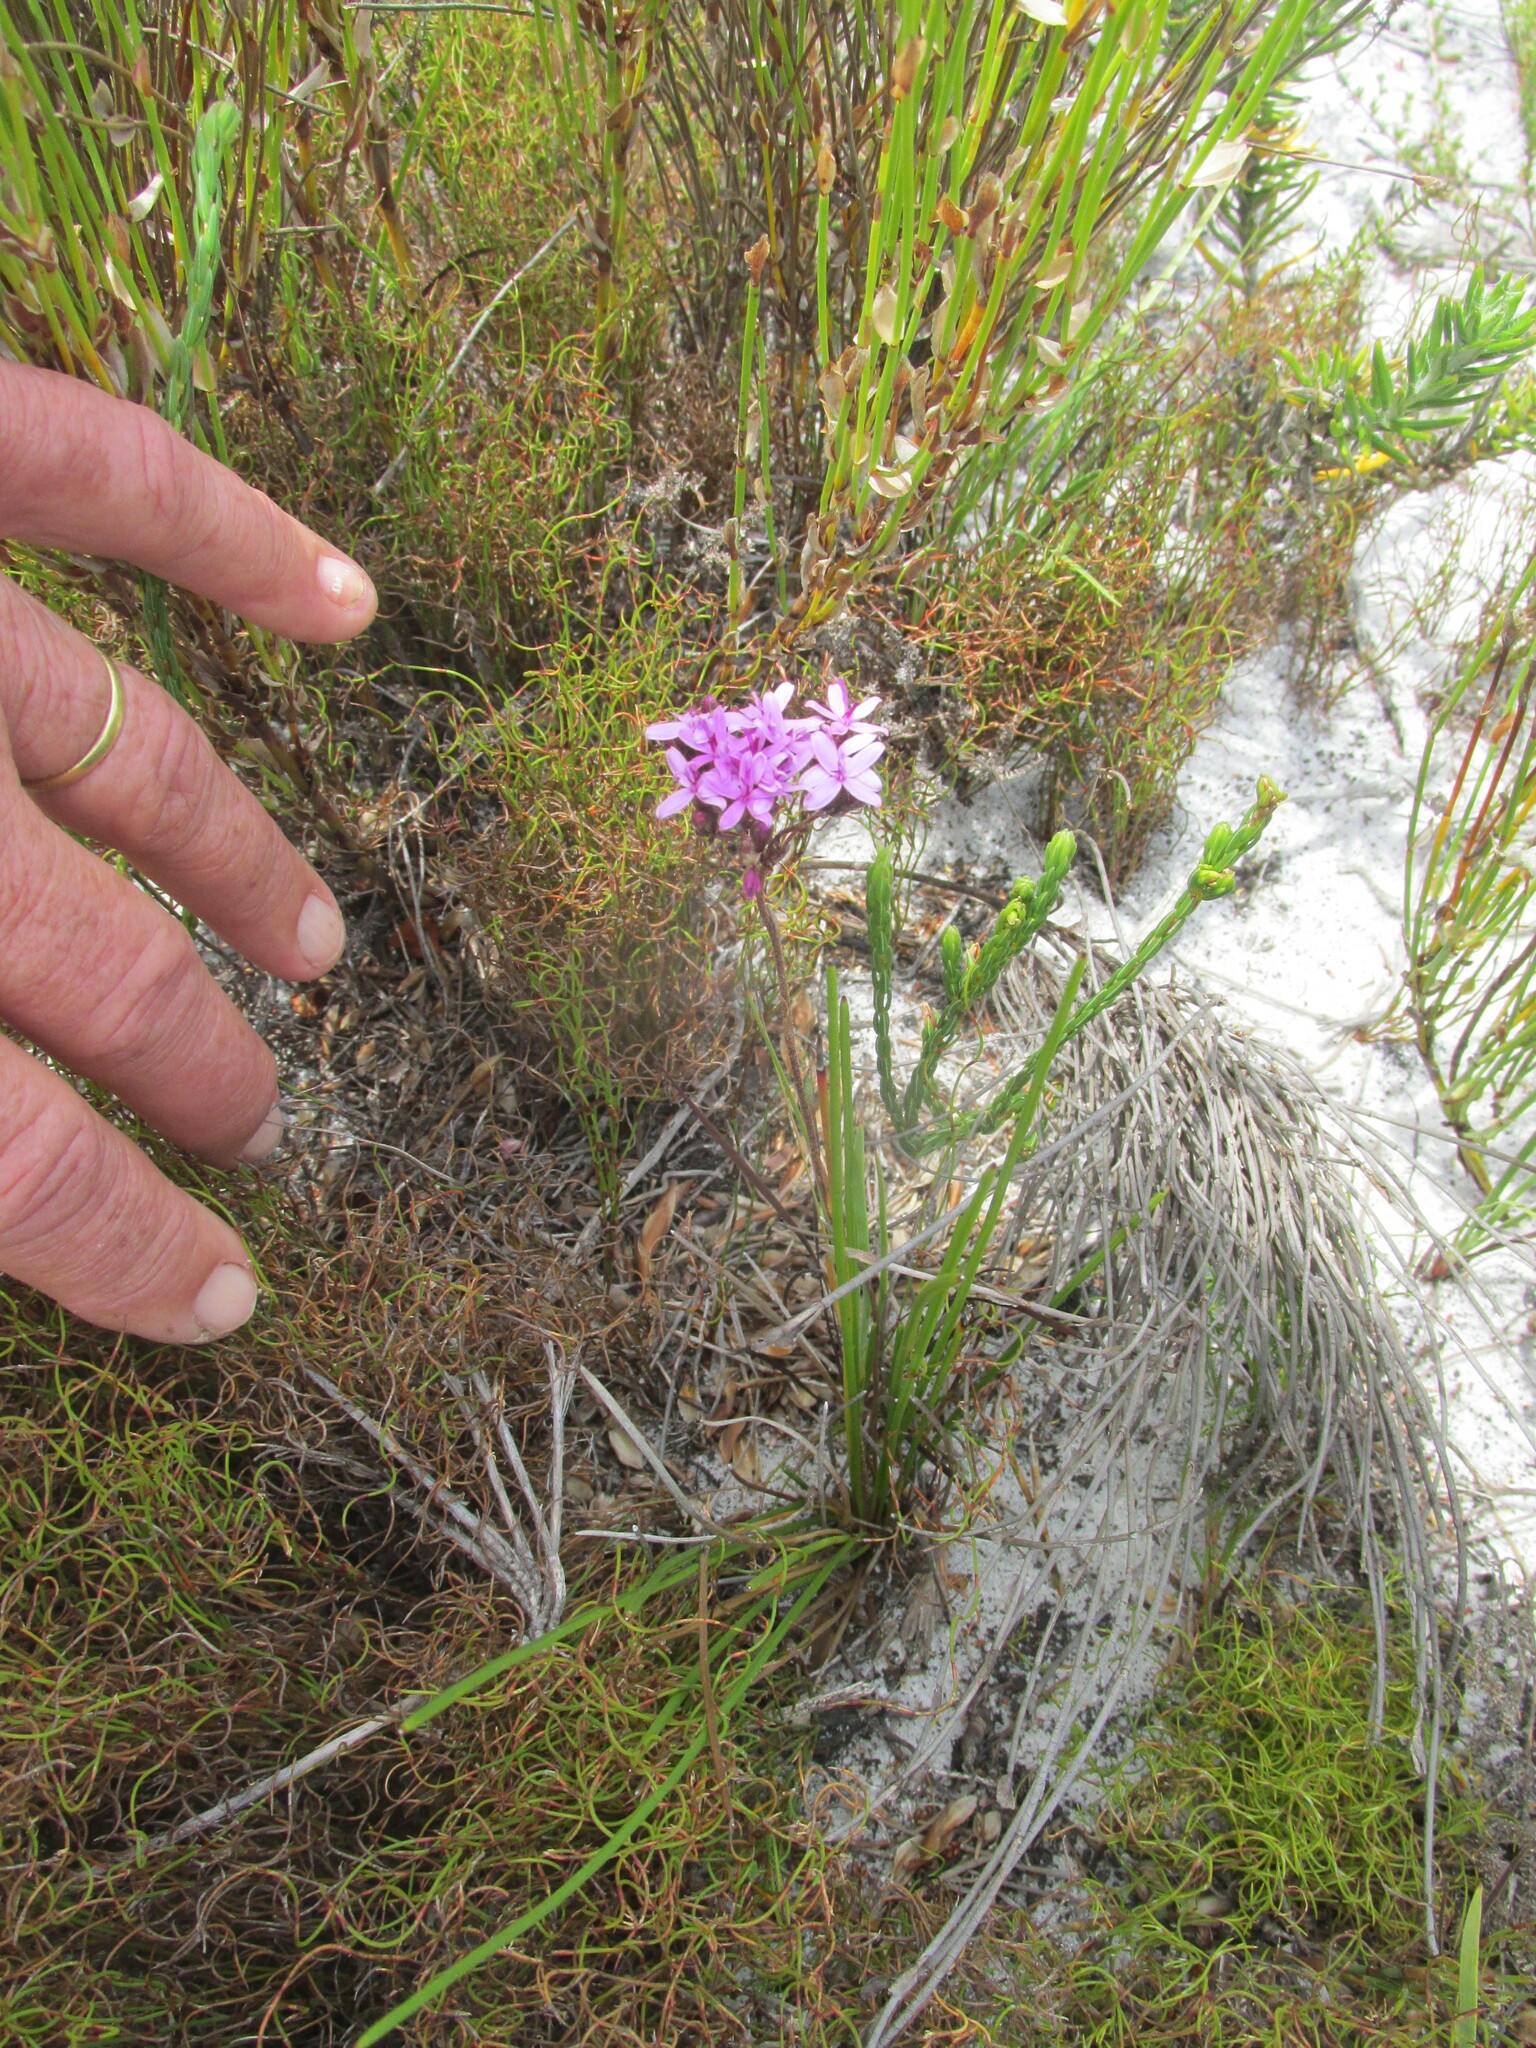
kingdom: Plantae
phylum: Tracheophyta
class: Magnoliopsida
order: Asterales
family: Asteraceae
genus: Corymbium
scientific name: Corymbium africanum
